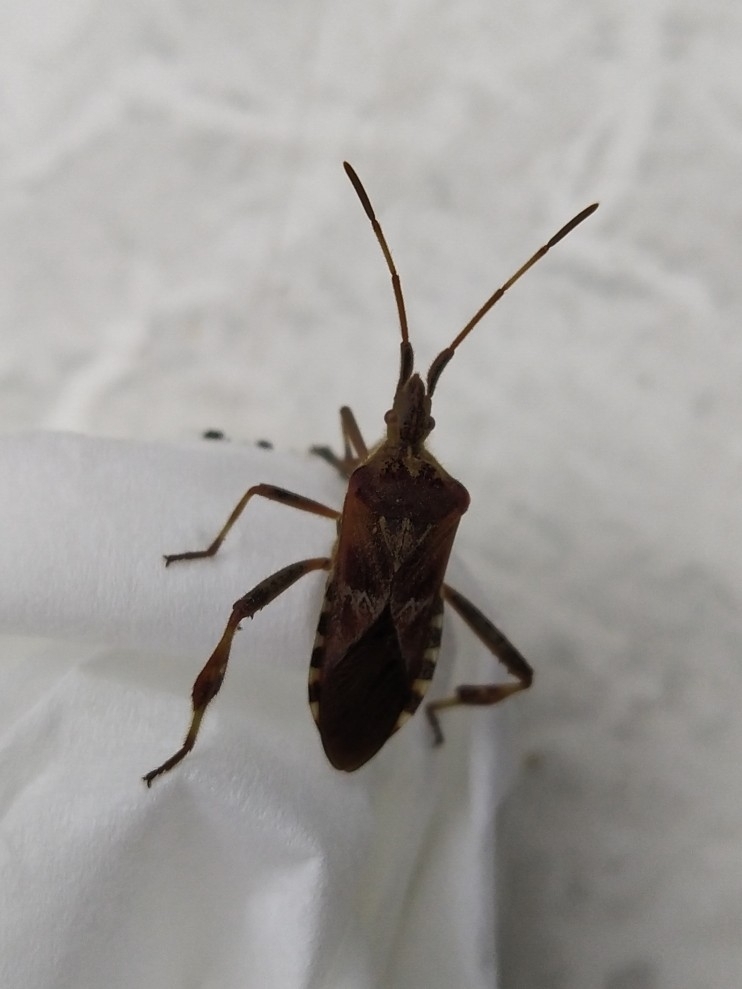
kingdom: Animalia
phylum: Arthropoda
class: Insecta
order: Hemiptera
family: Coreidae
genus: Leptoglossus
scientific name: Leptoglossus occidentalis
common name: Western conifer-seed bug
